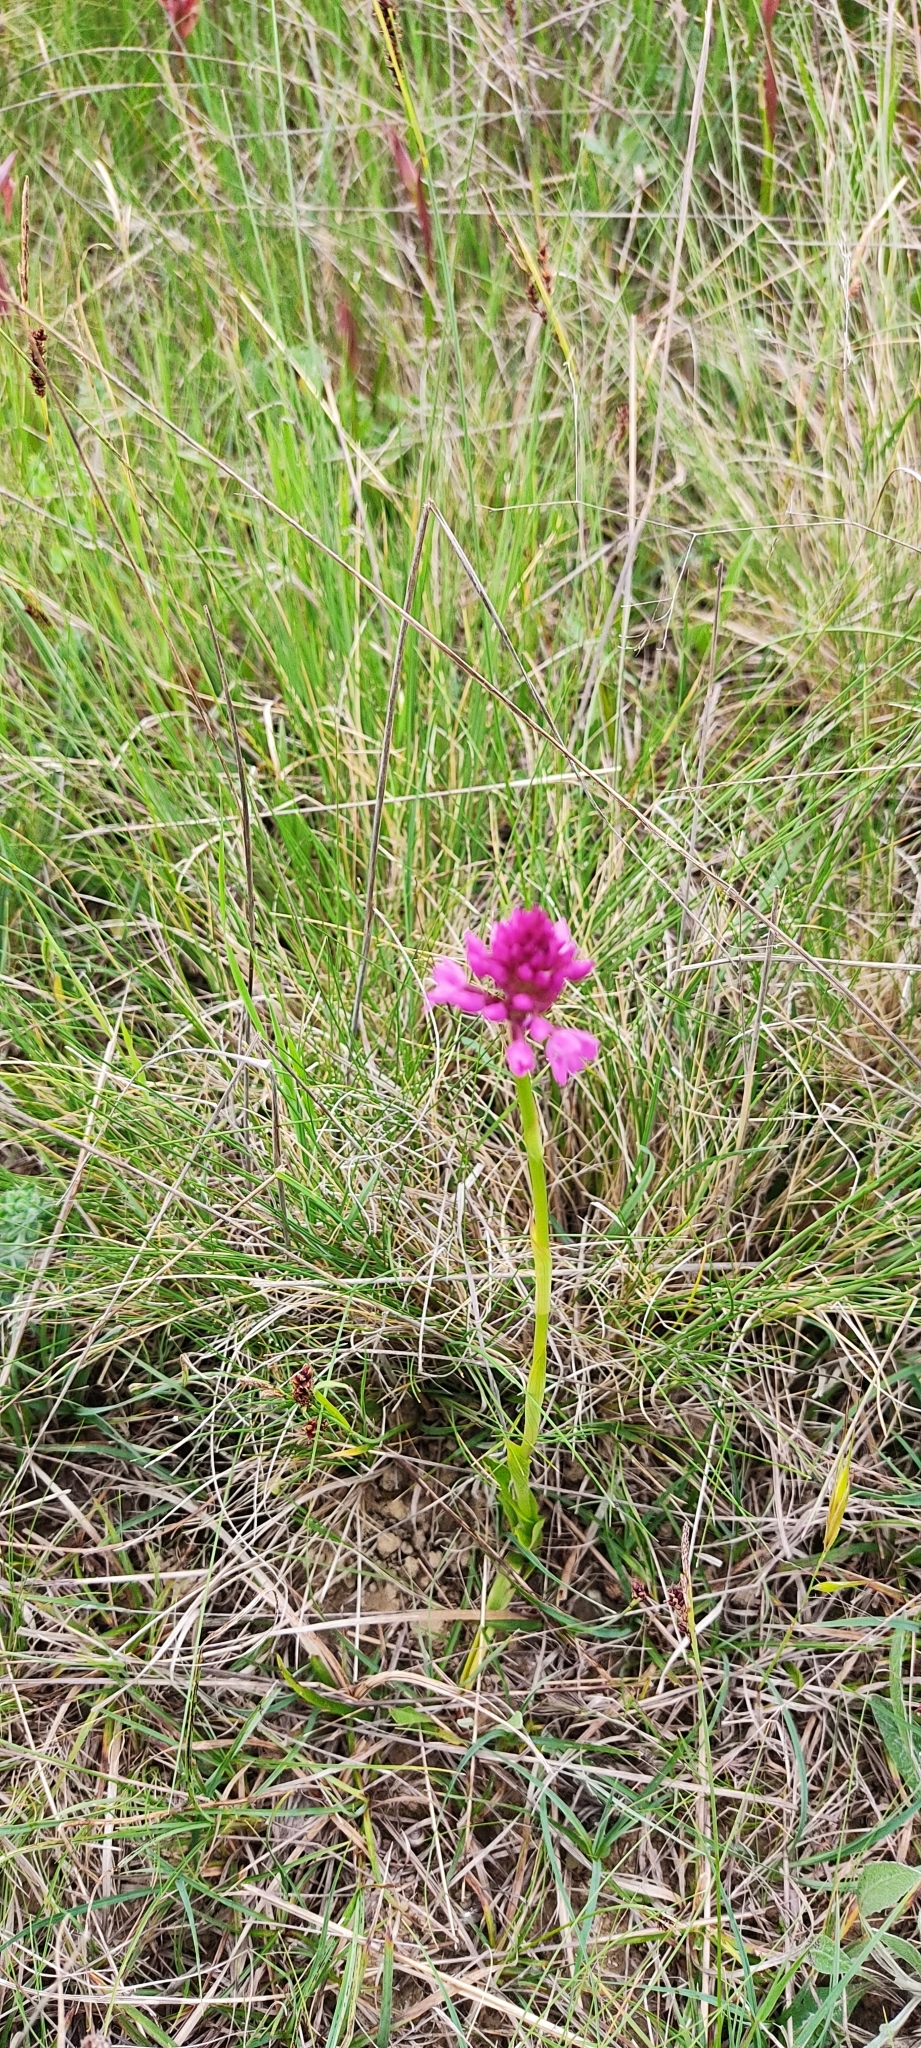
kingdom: Plantae
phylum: Tracheophyta
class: Liliopsida
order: Asparagales
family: Orchidaceae
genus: Anacamptis
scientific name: Anacamptis pyramidalis
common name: Pyramidal orchid
